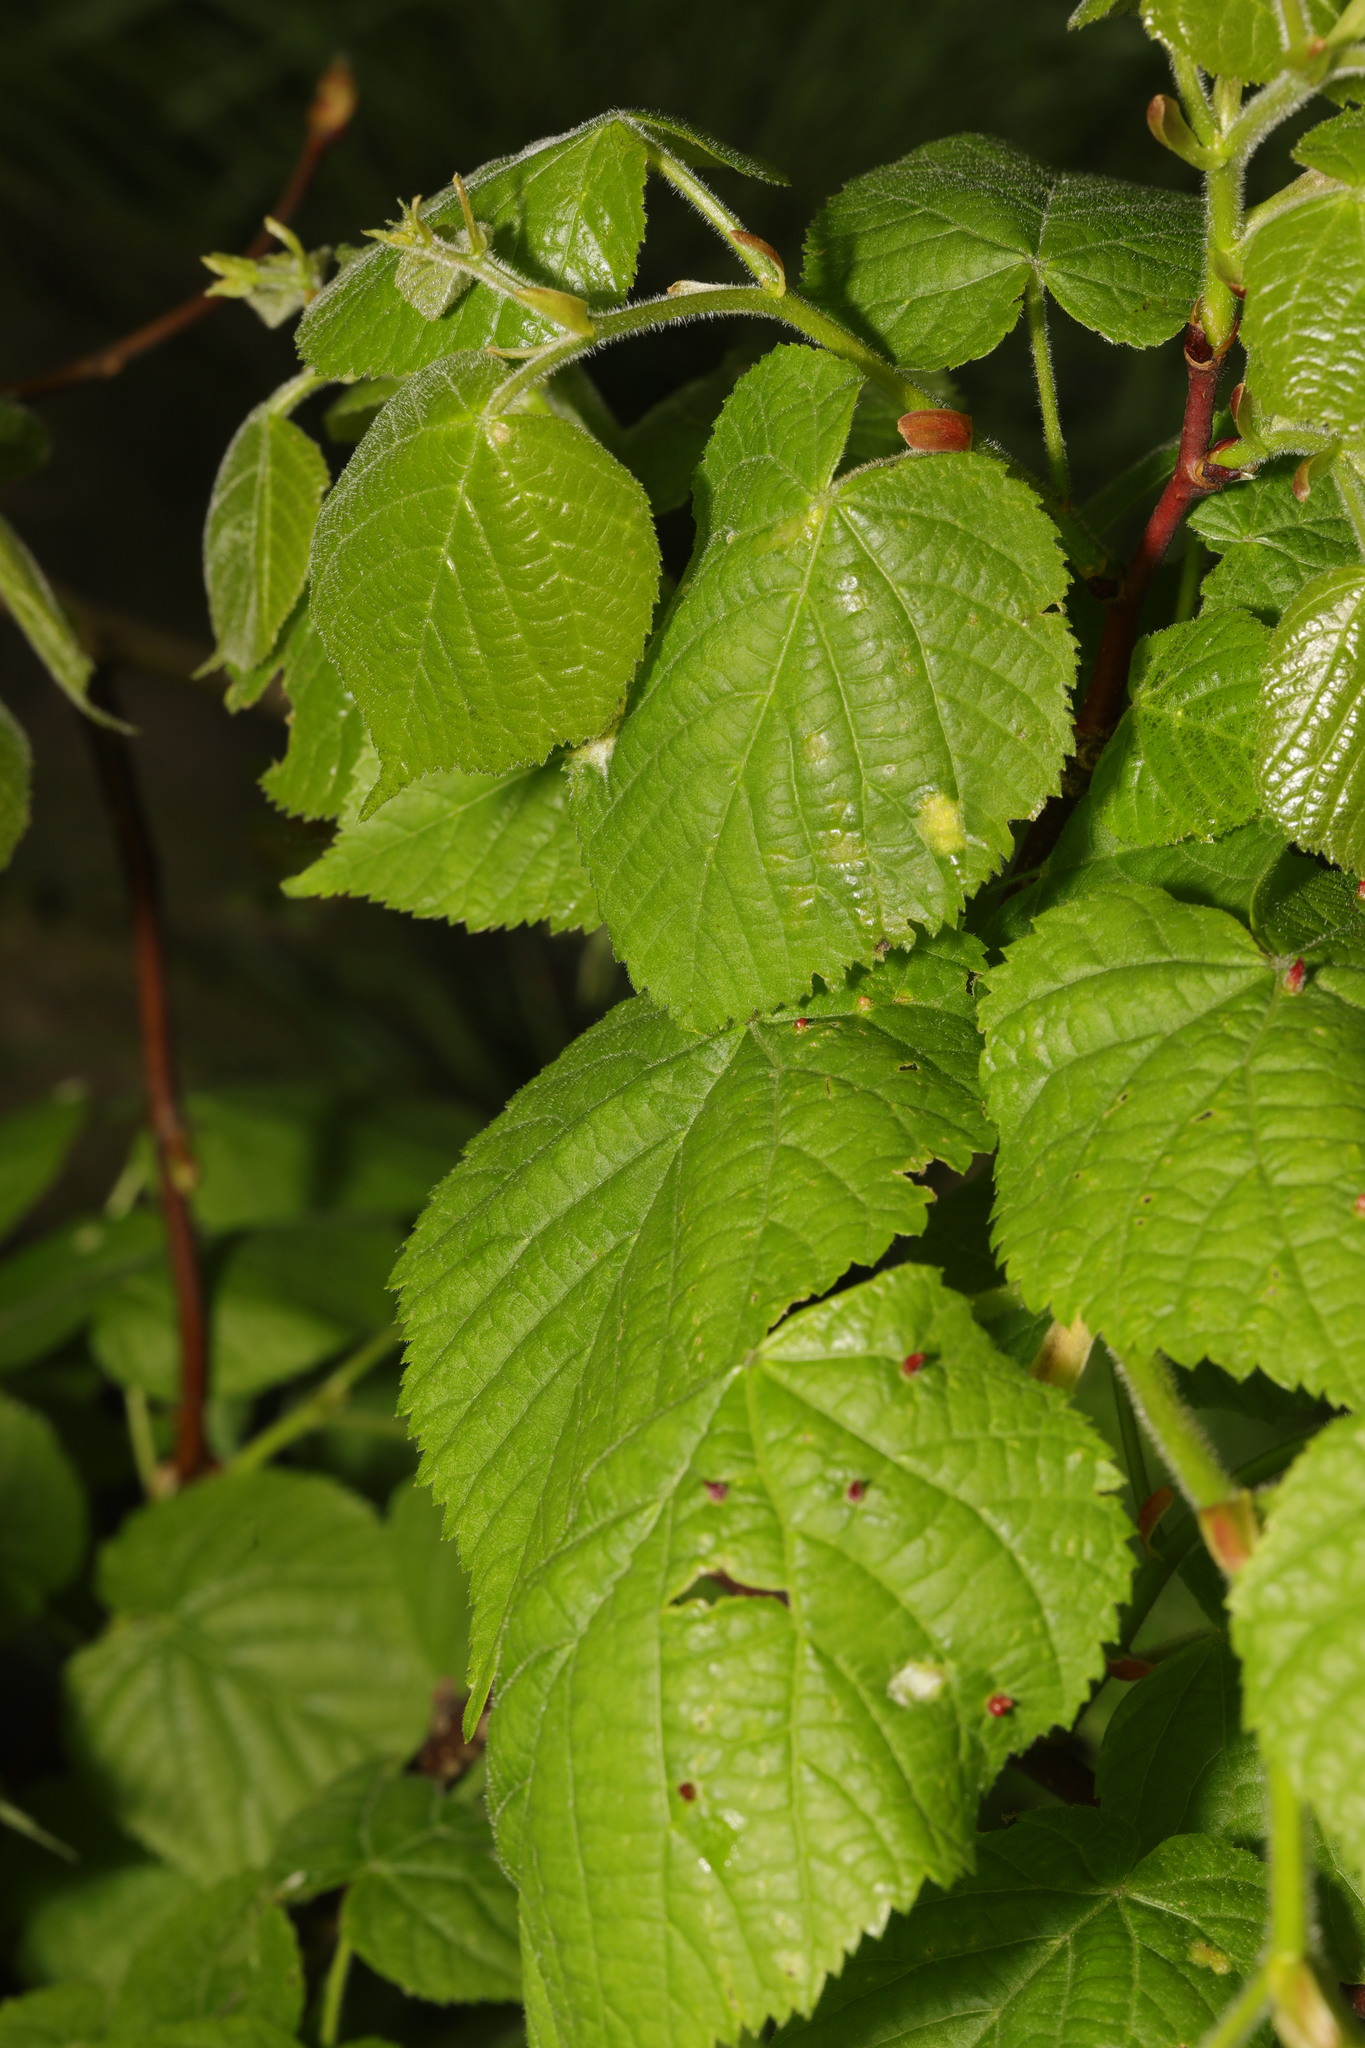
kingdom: Plantae
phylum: Tracheophyta
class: Magnoliopsida
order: Malvales
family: Malvaceae
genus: Tilia
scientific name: Tilia europaea
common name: European linden
